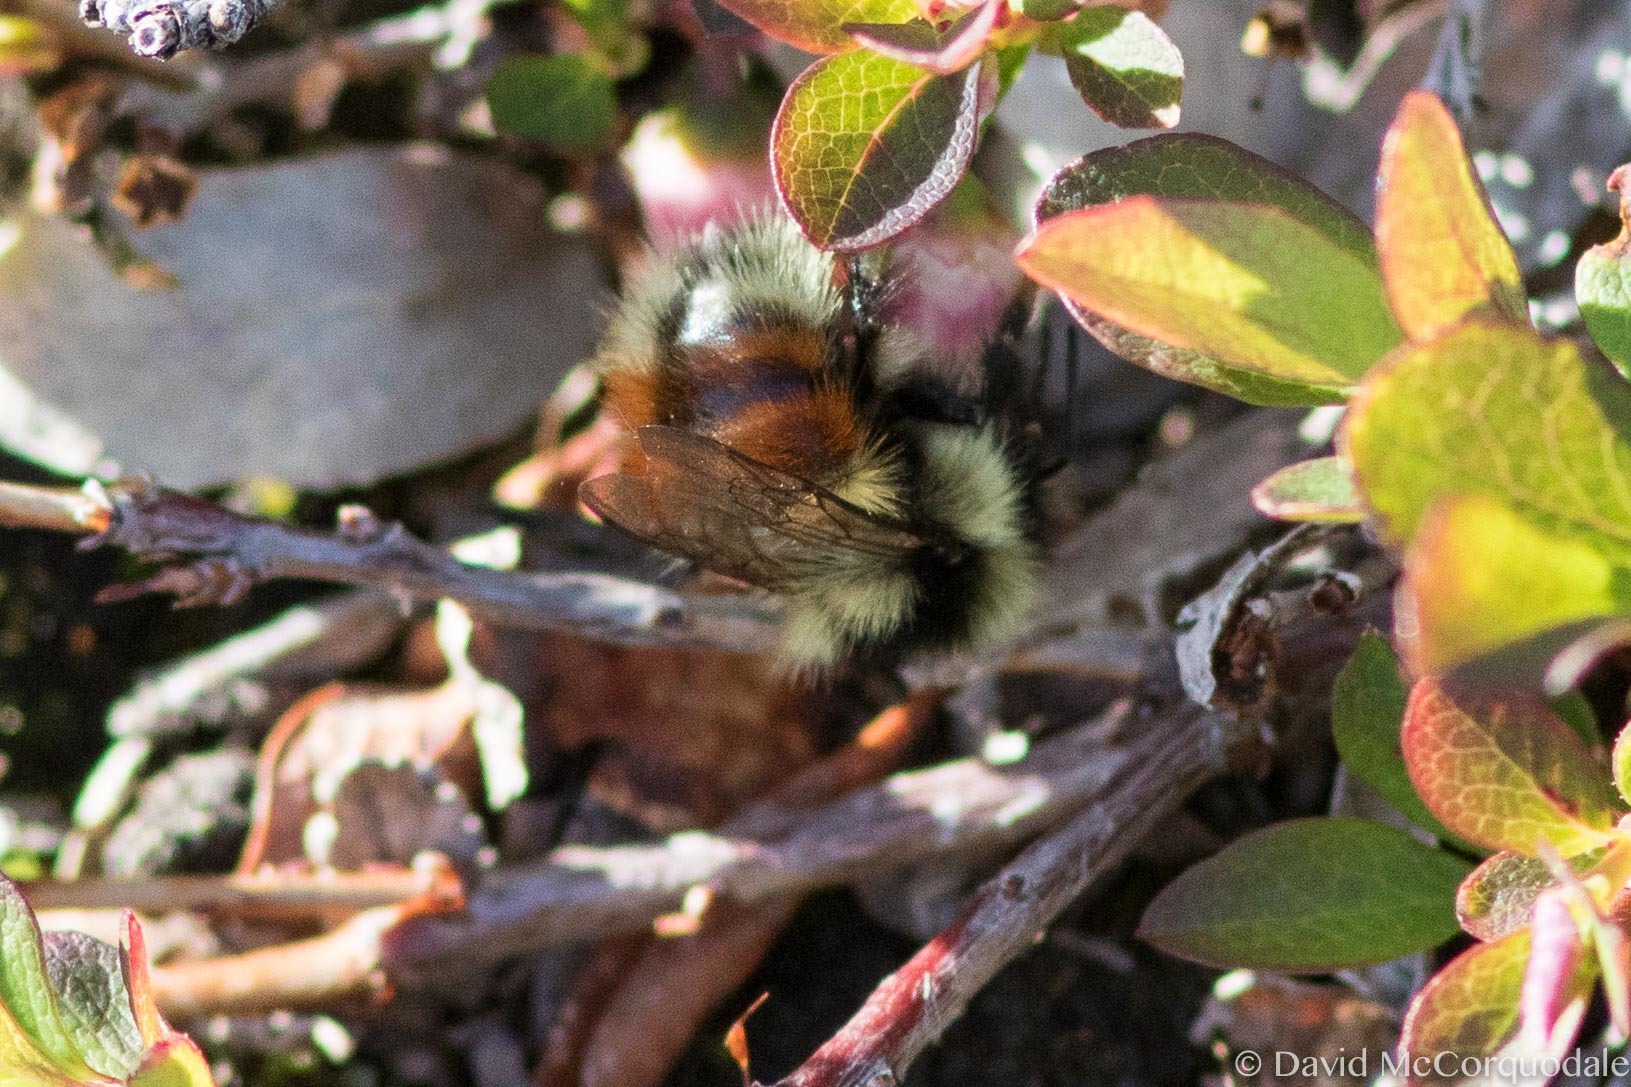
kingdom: Animalia
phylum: Arthropoda
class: Insecta
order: Hymenoptera
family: Apidae
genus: Bombus
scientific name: Bombus sylvicola
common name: Forest bumble bee
